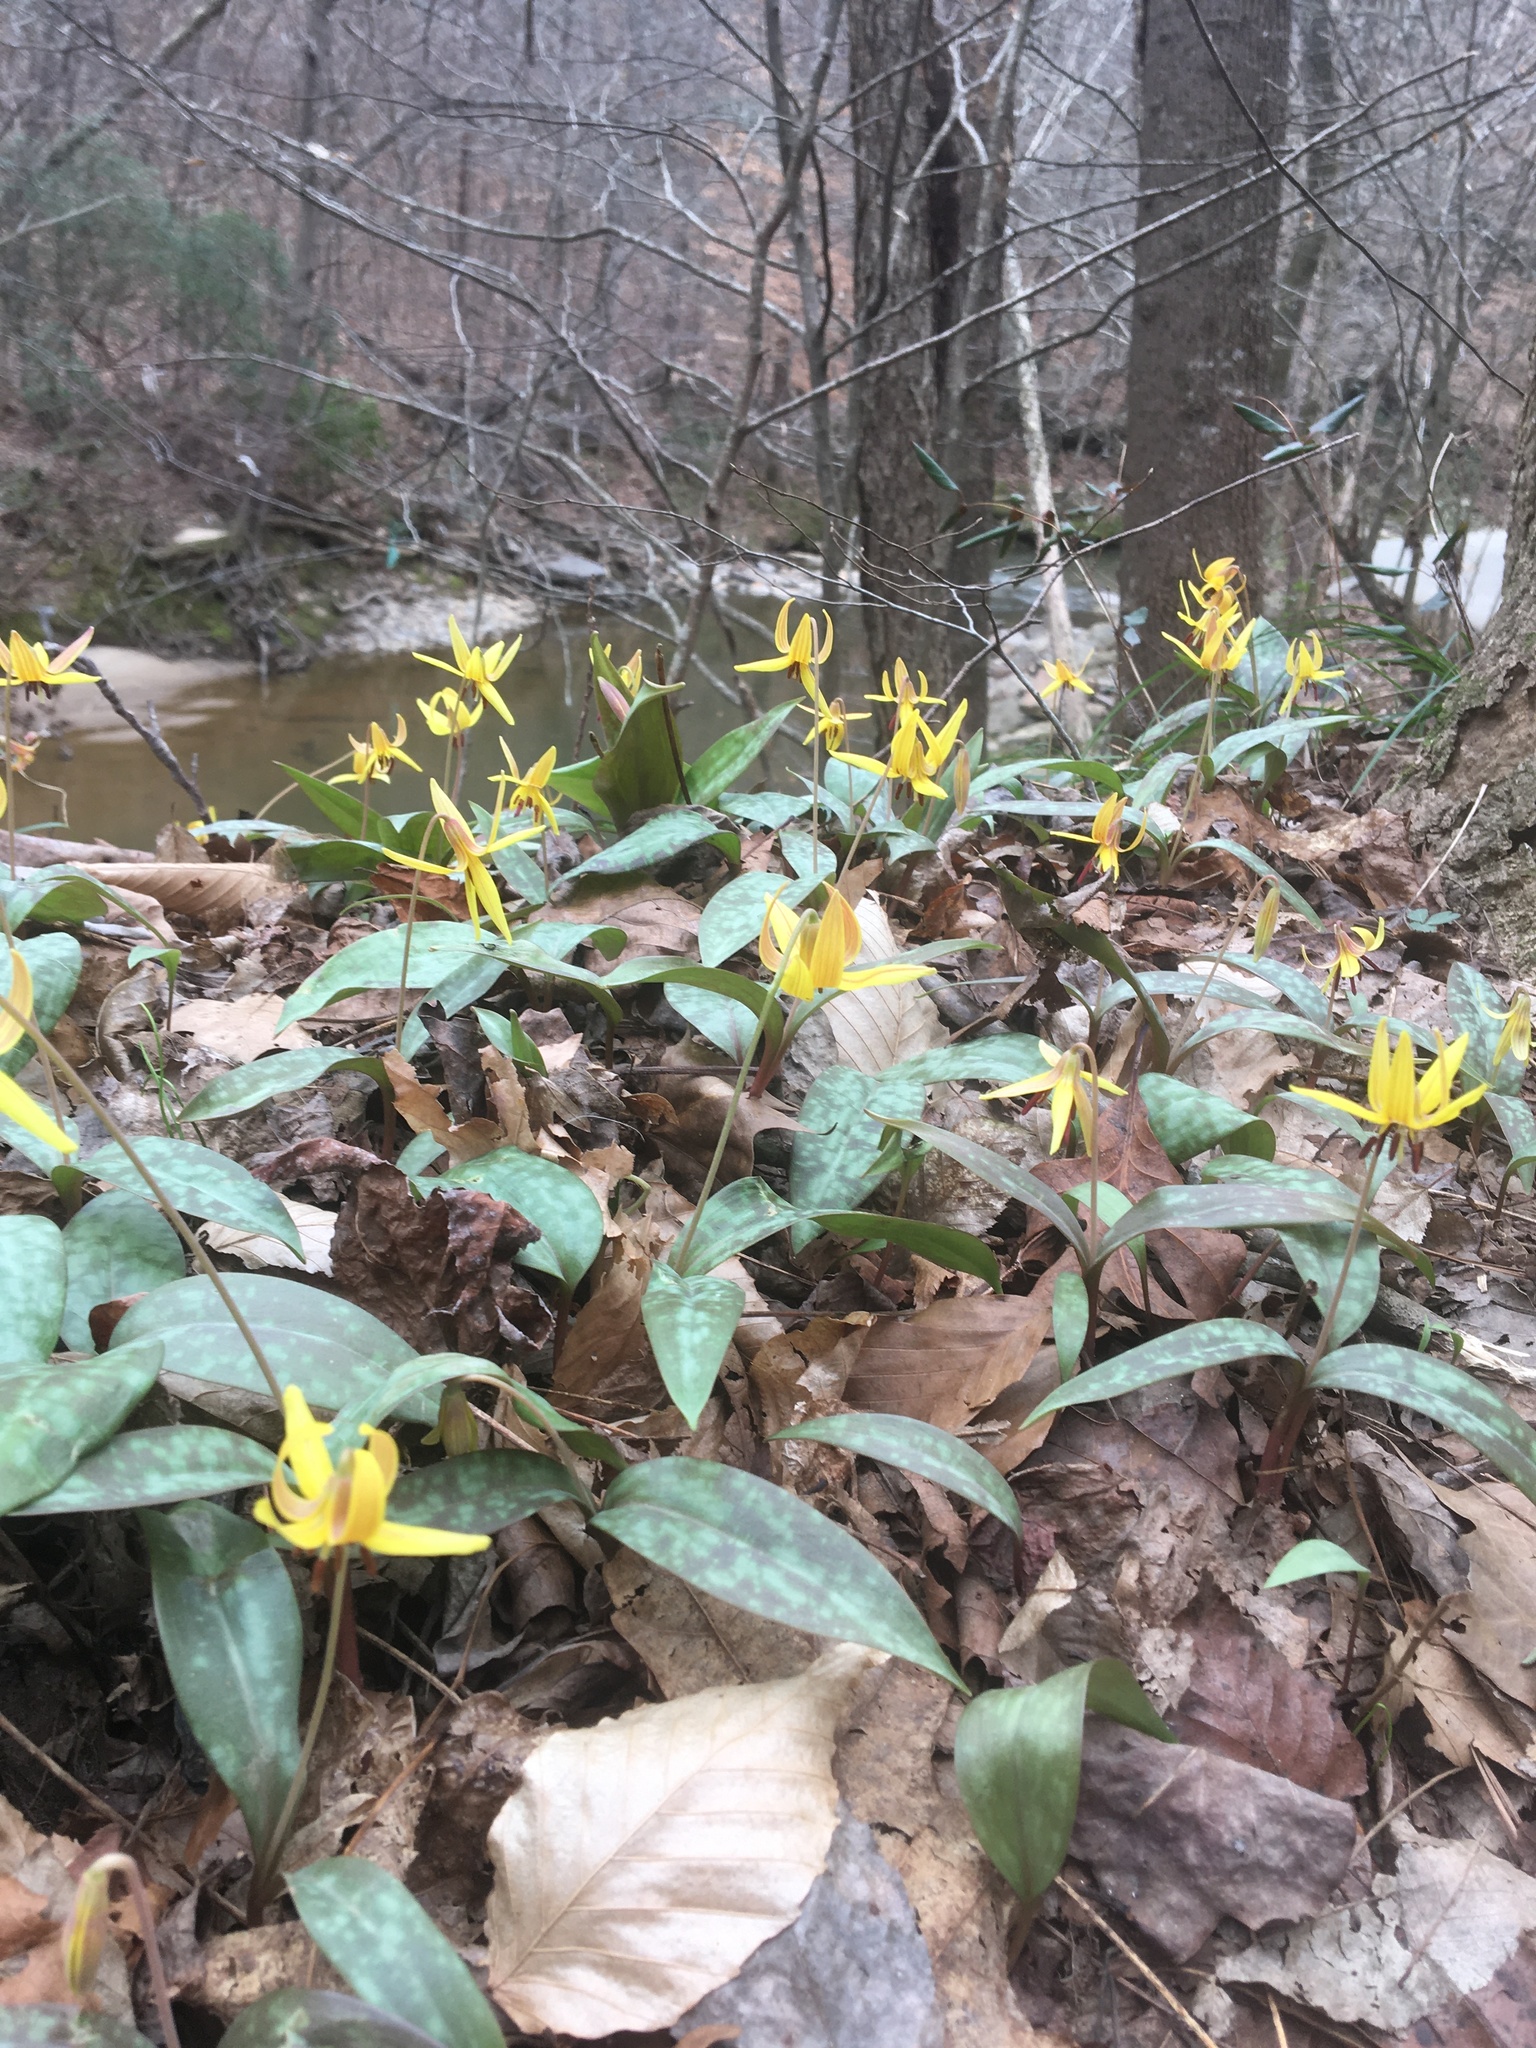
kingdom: Plantae
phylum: Tracheophyta
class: Liliopsida
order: Liliales
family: Liliaceae
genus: Erythronium
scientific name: Erythronium umbilicatum
